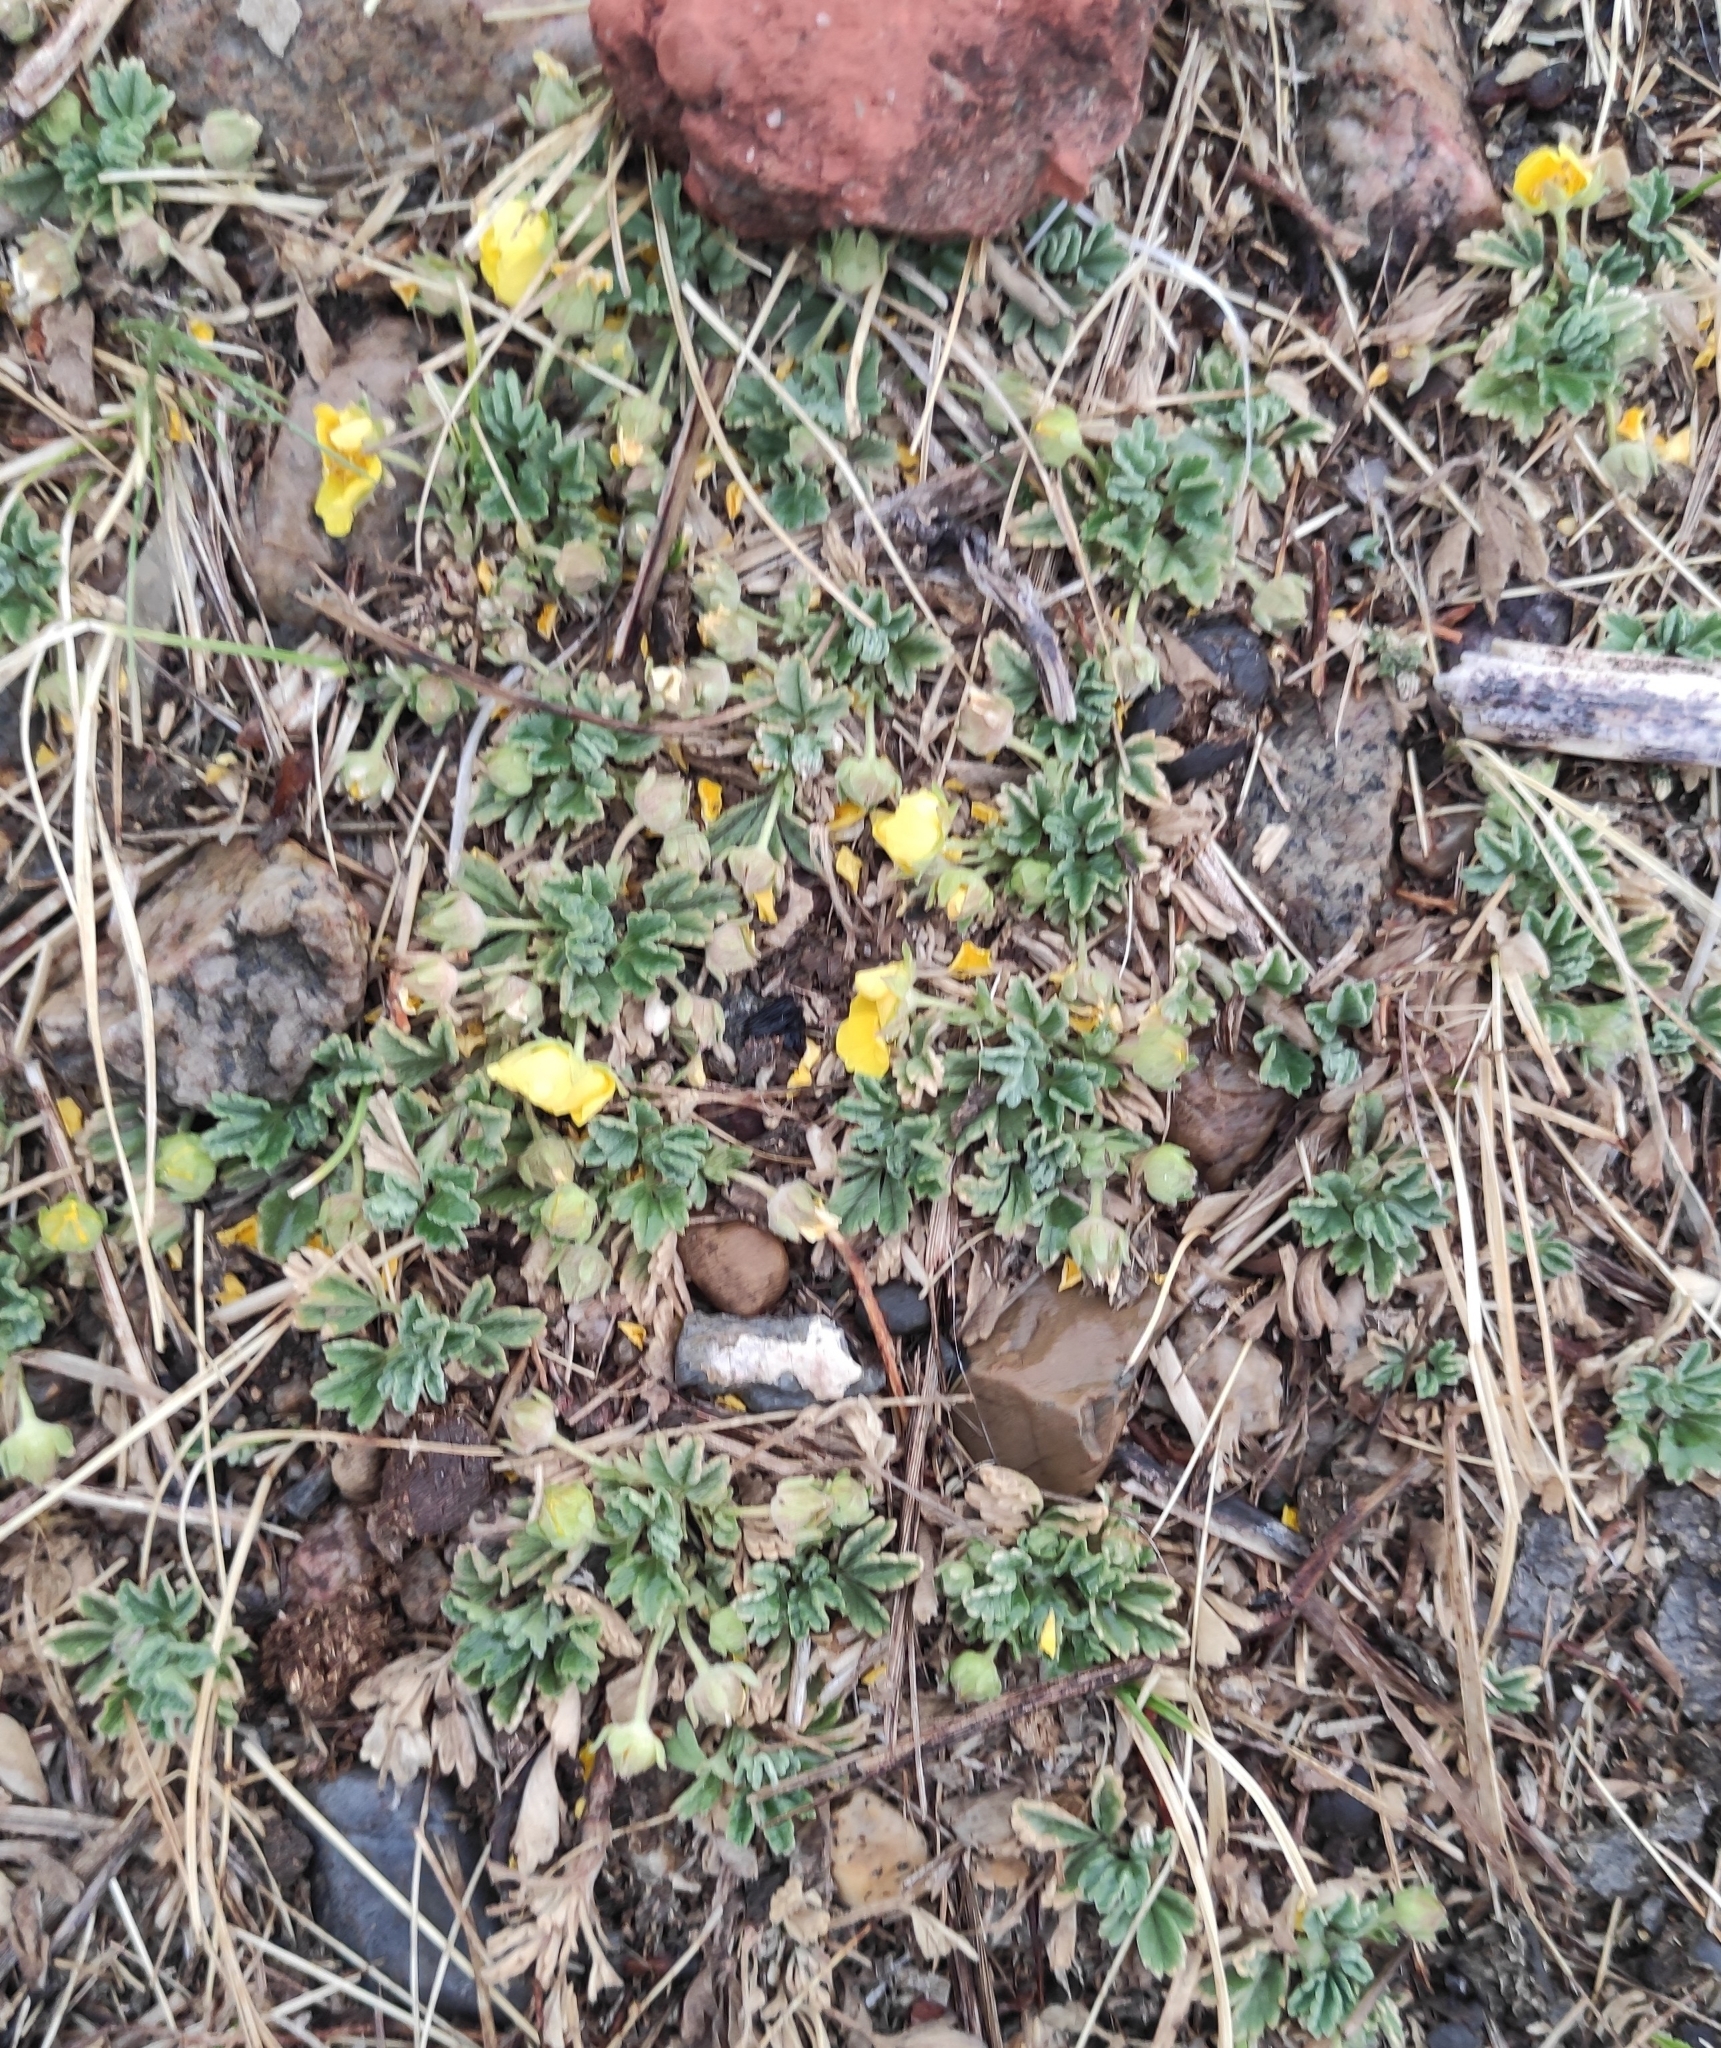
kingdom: Plantae
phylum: Tracheophyta
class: Magnoliopsida
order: Rosales
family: Rosaceae
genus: Potentilla
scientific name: Potentilla acaulis
